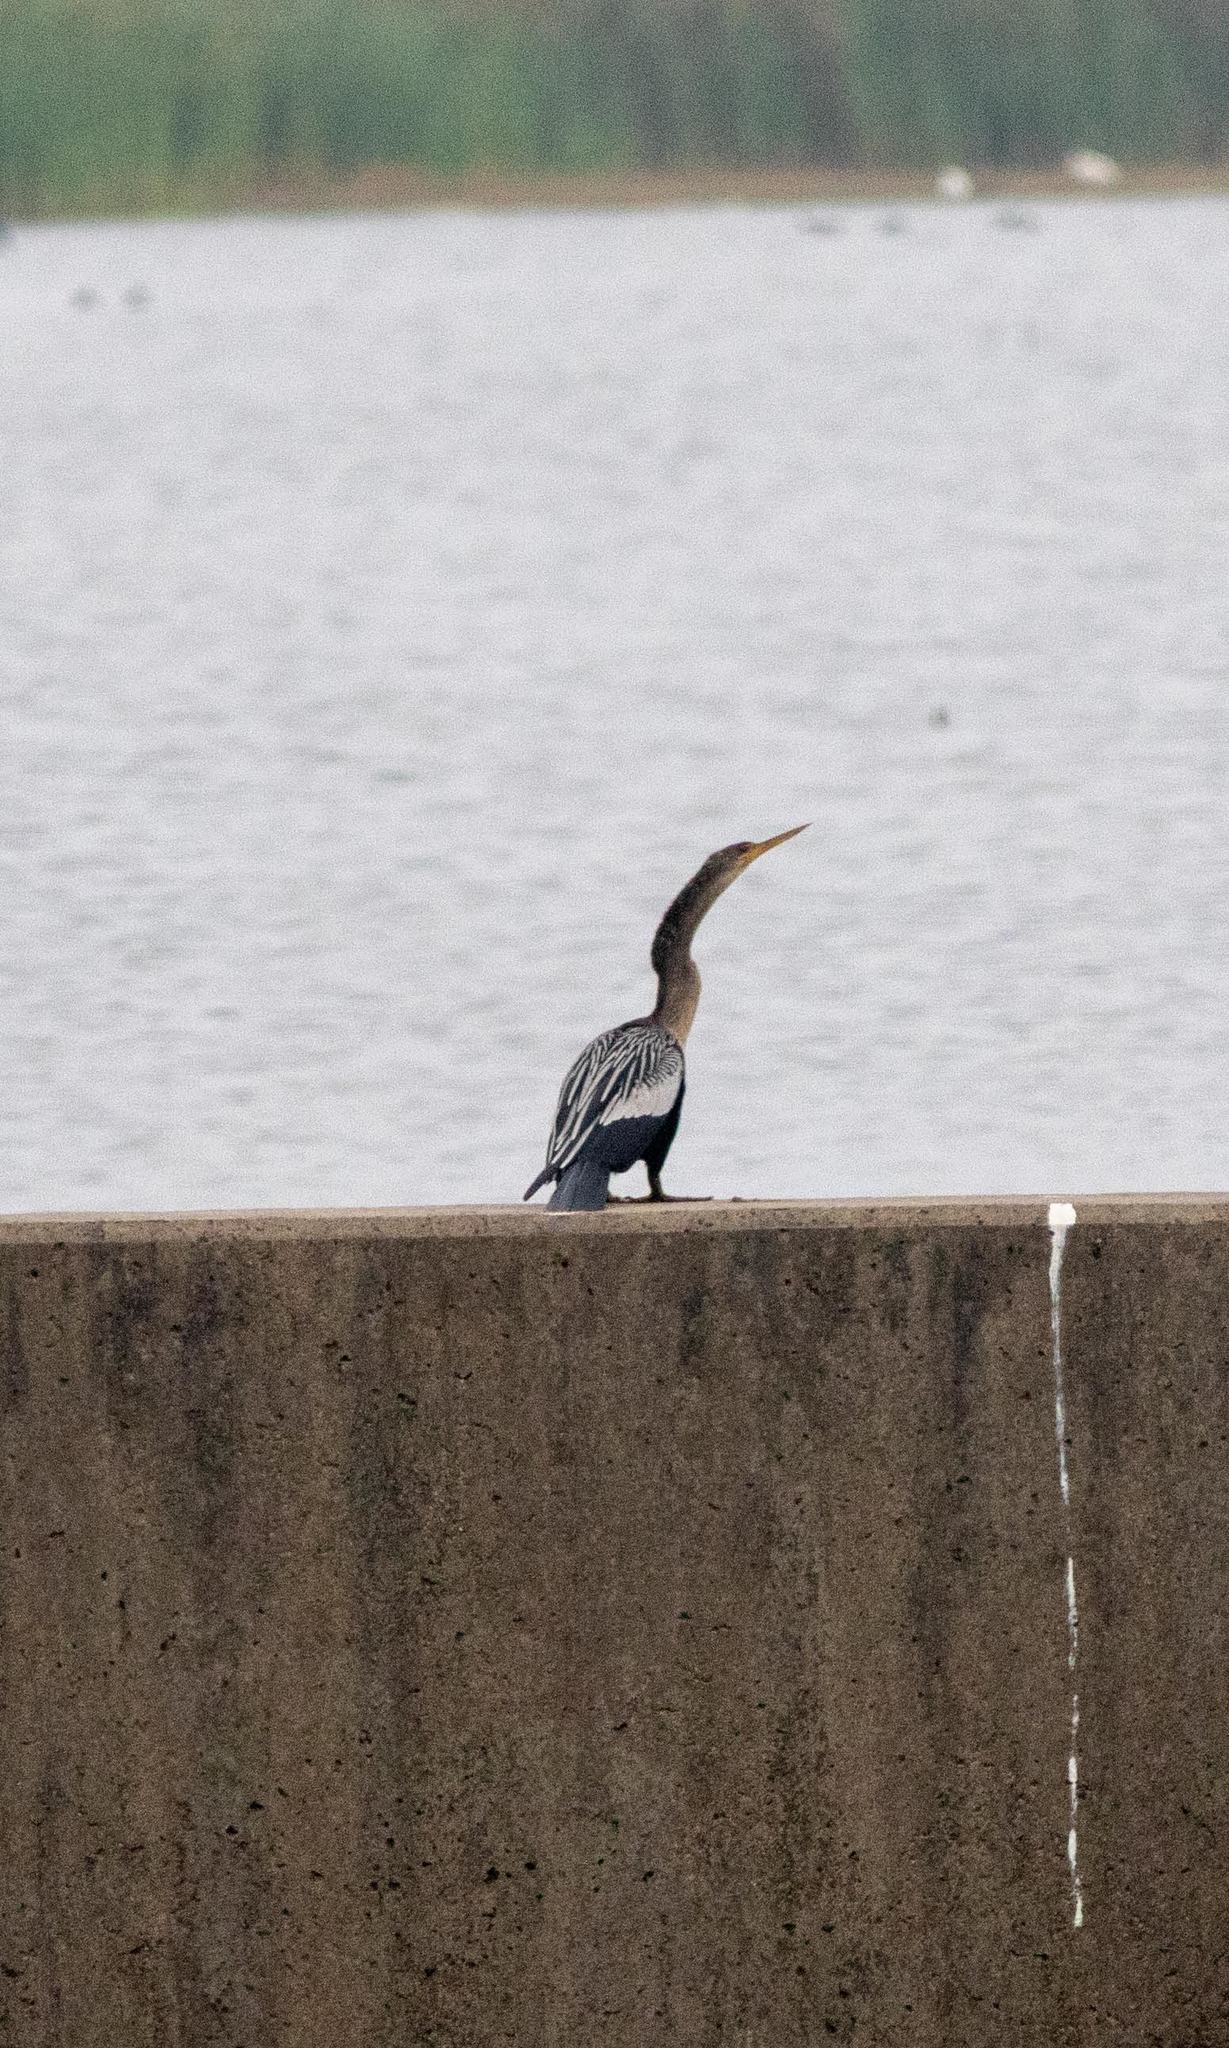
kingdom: Animalia
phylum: Chordata
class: Aves
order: Suliformes
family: Anhingidae
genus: Anhinga
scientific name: Anhinga anhinga
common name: Anhinga
